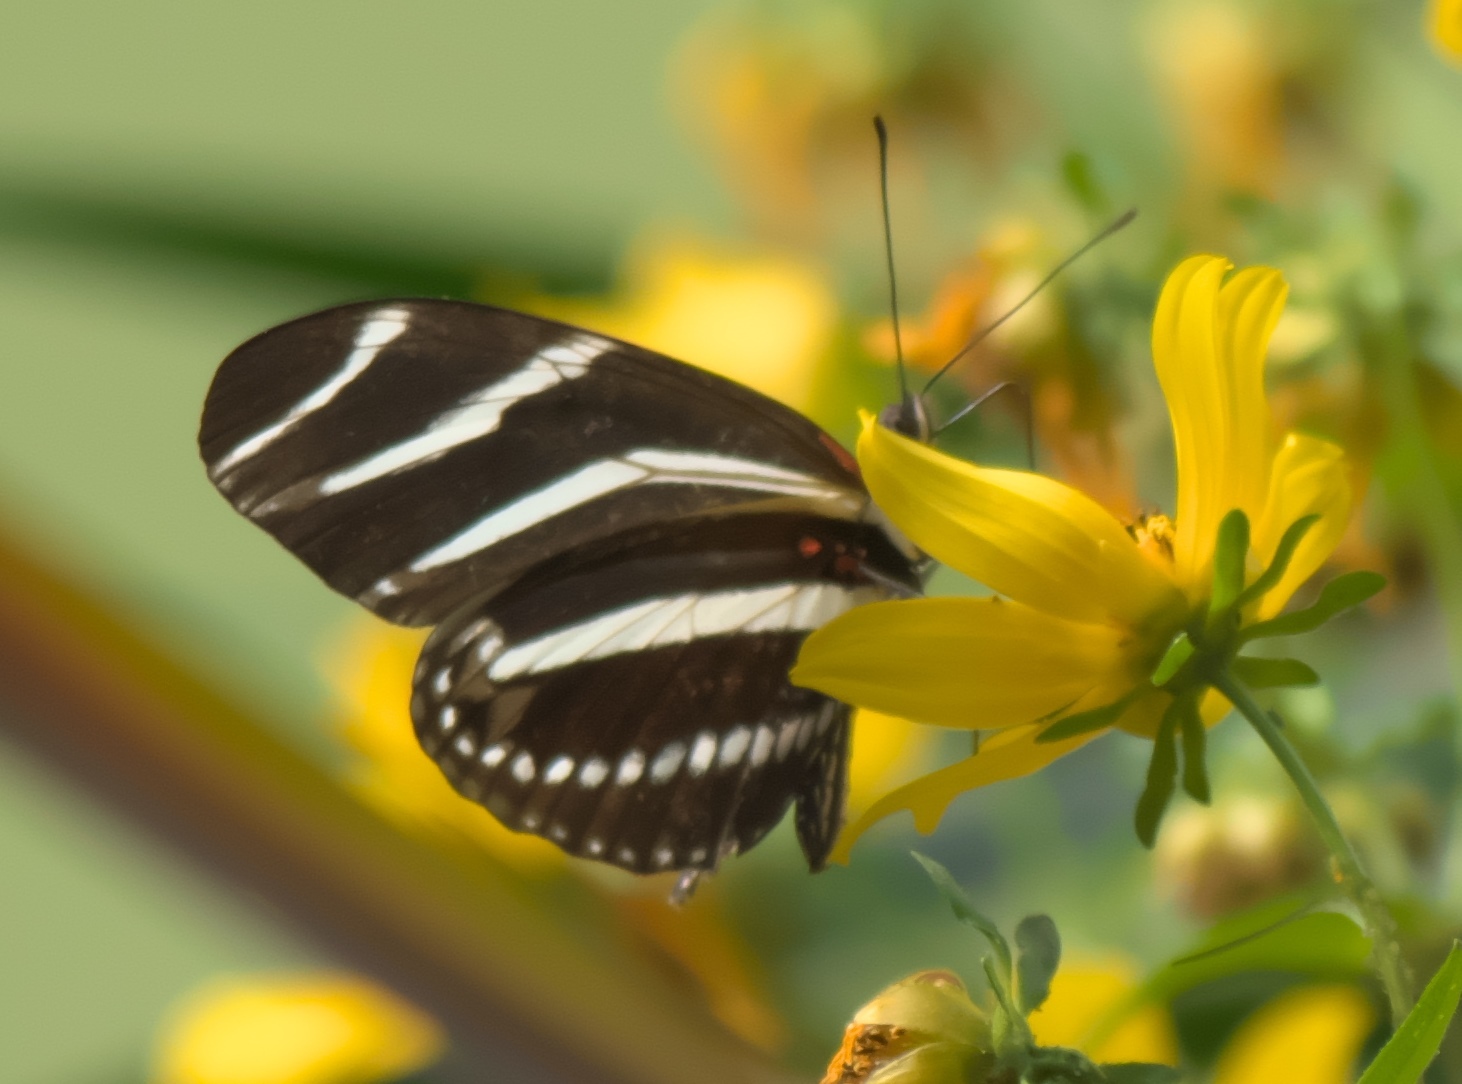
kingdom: Animalia
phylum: Arthropoda
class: Insecta
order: Lepidoptera
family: Nymphalidae
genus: Heliconius
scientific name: Heliconius charithonia
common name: Zebra long wing
